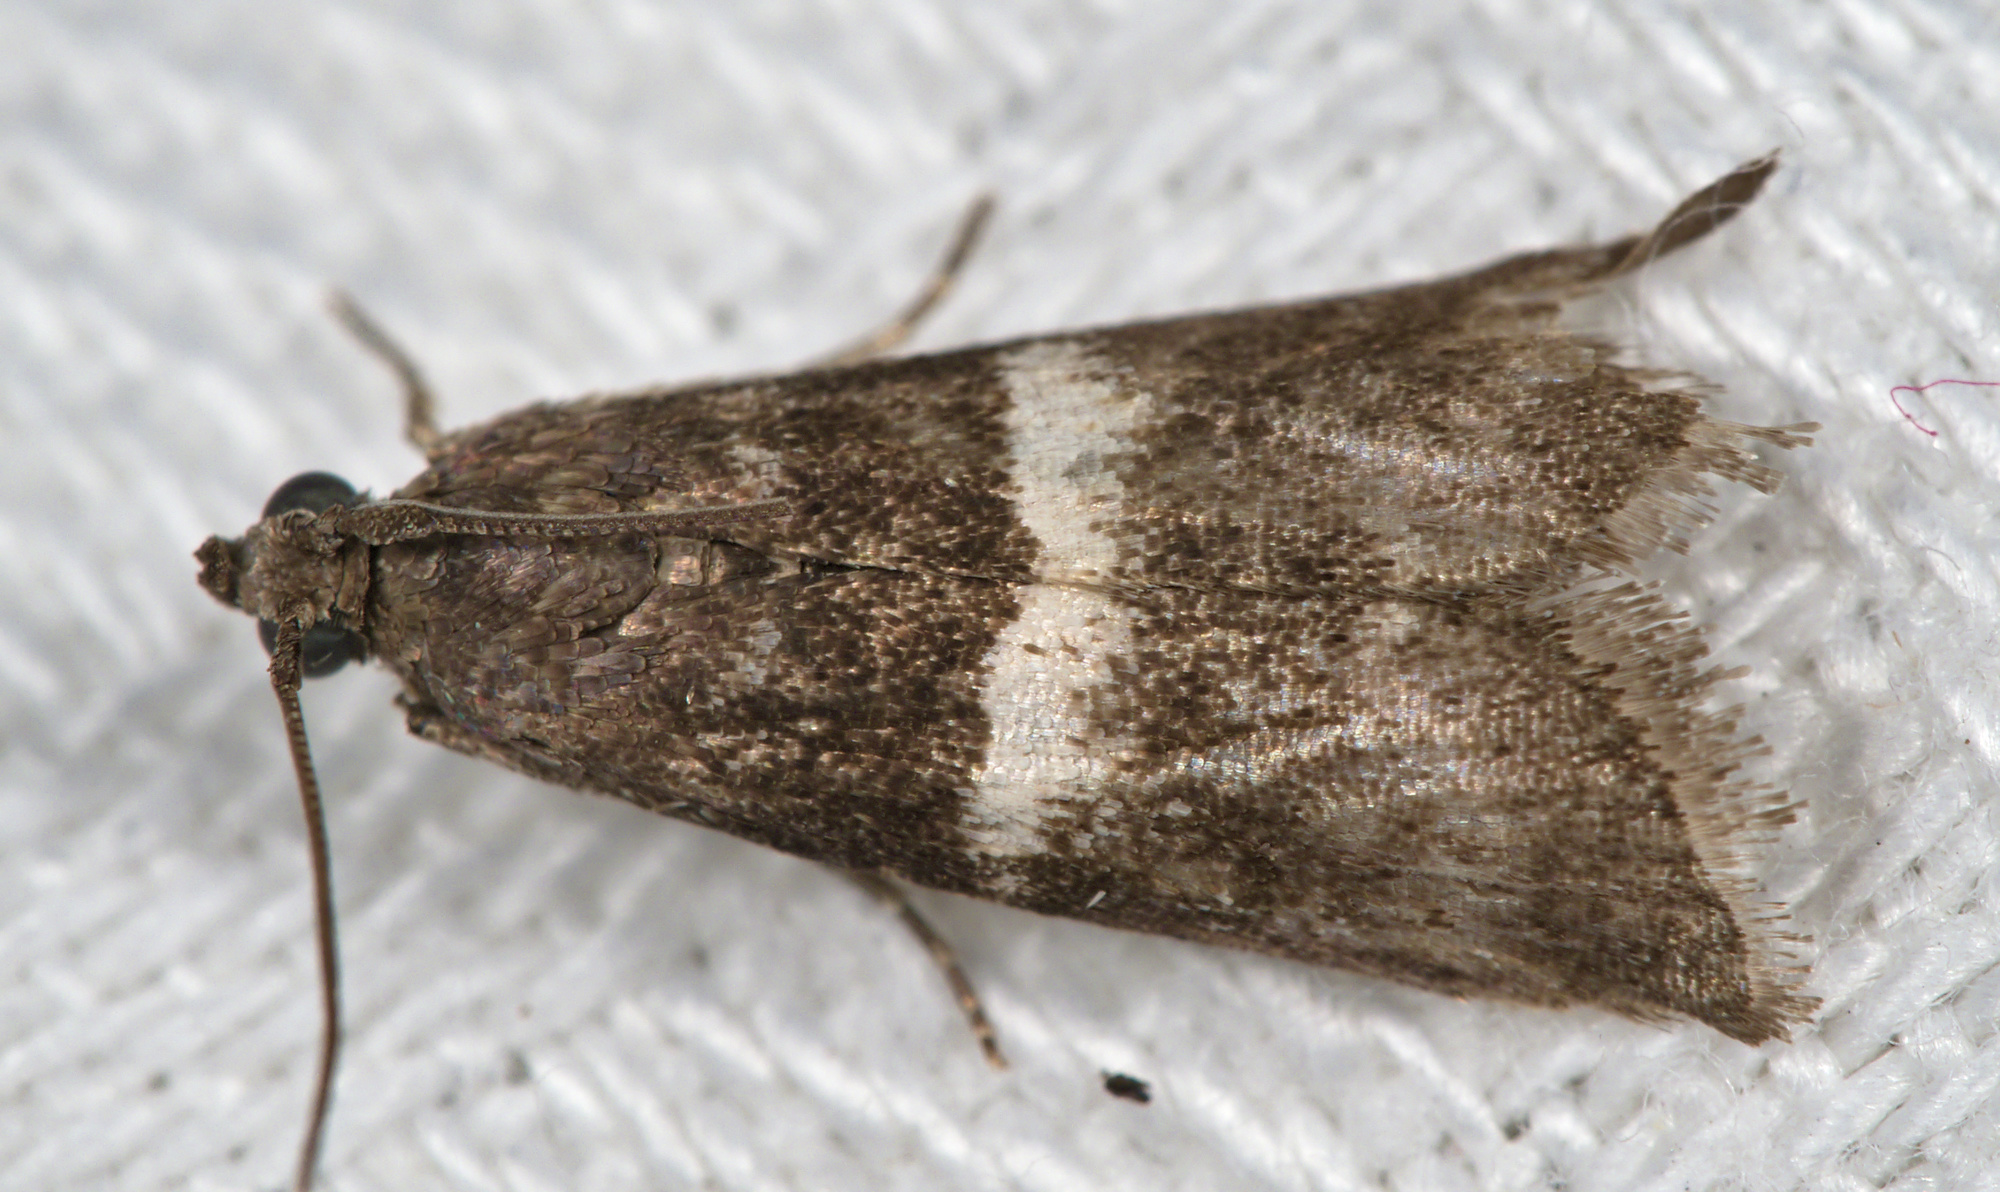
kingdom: Animalia
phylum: Arthropoda
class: Insecta
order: Lepidoptera
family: Pyralidae
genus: Elegia
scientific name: Elegia similella
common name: White-barred knot-horn
